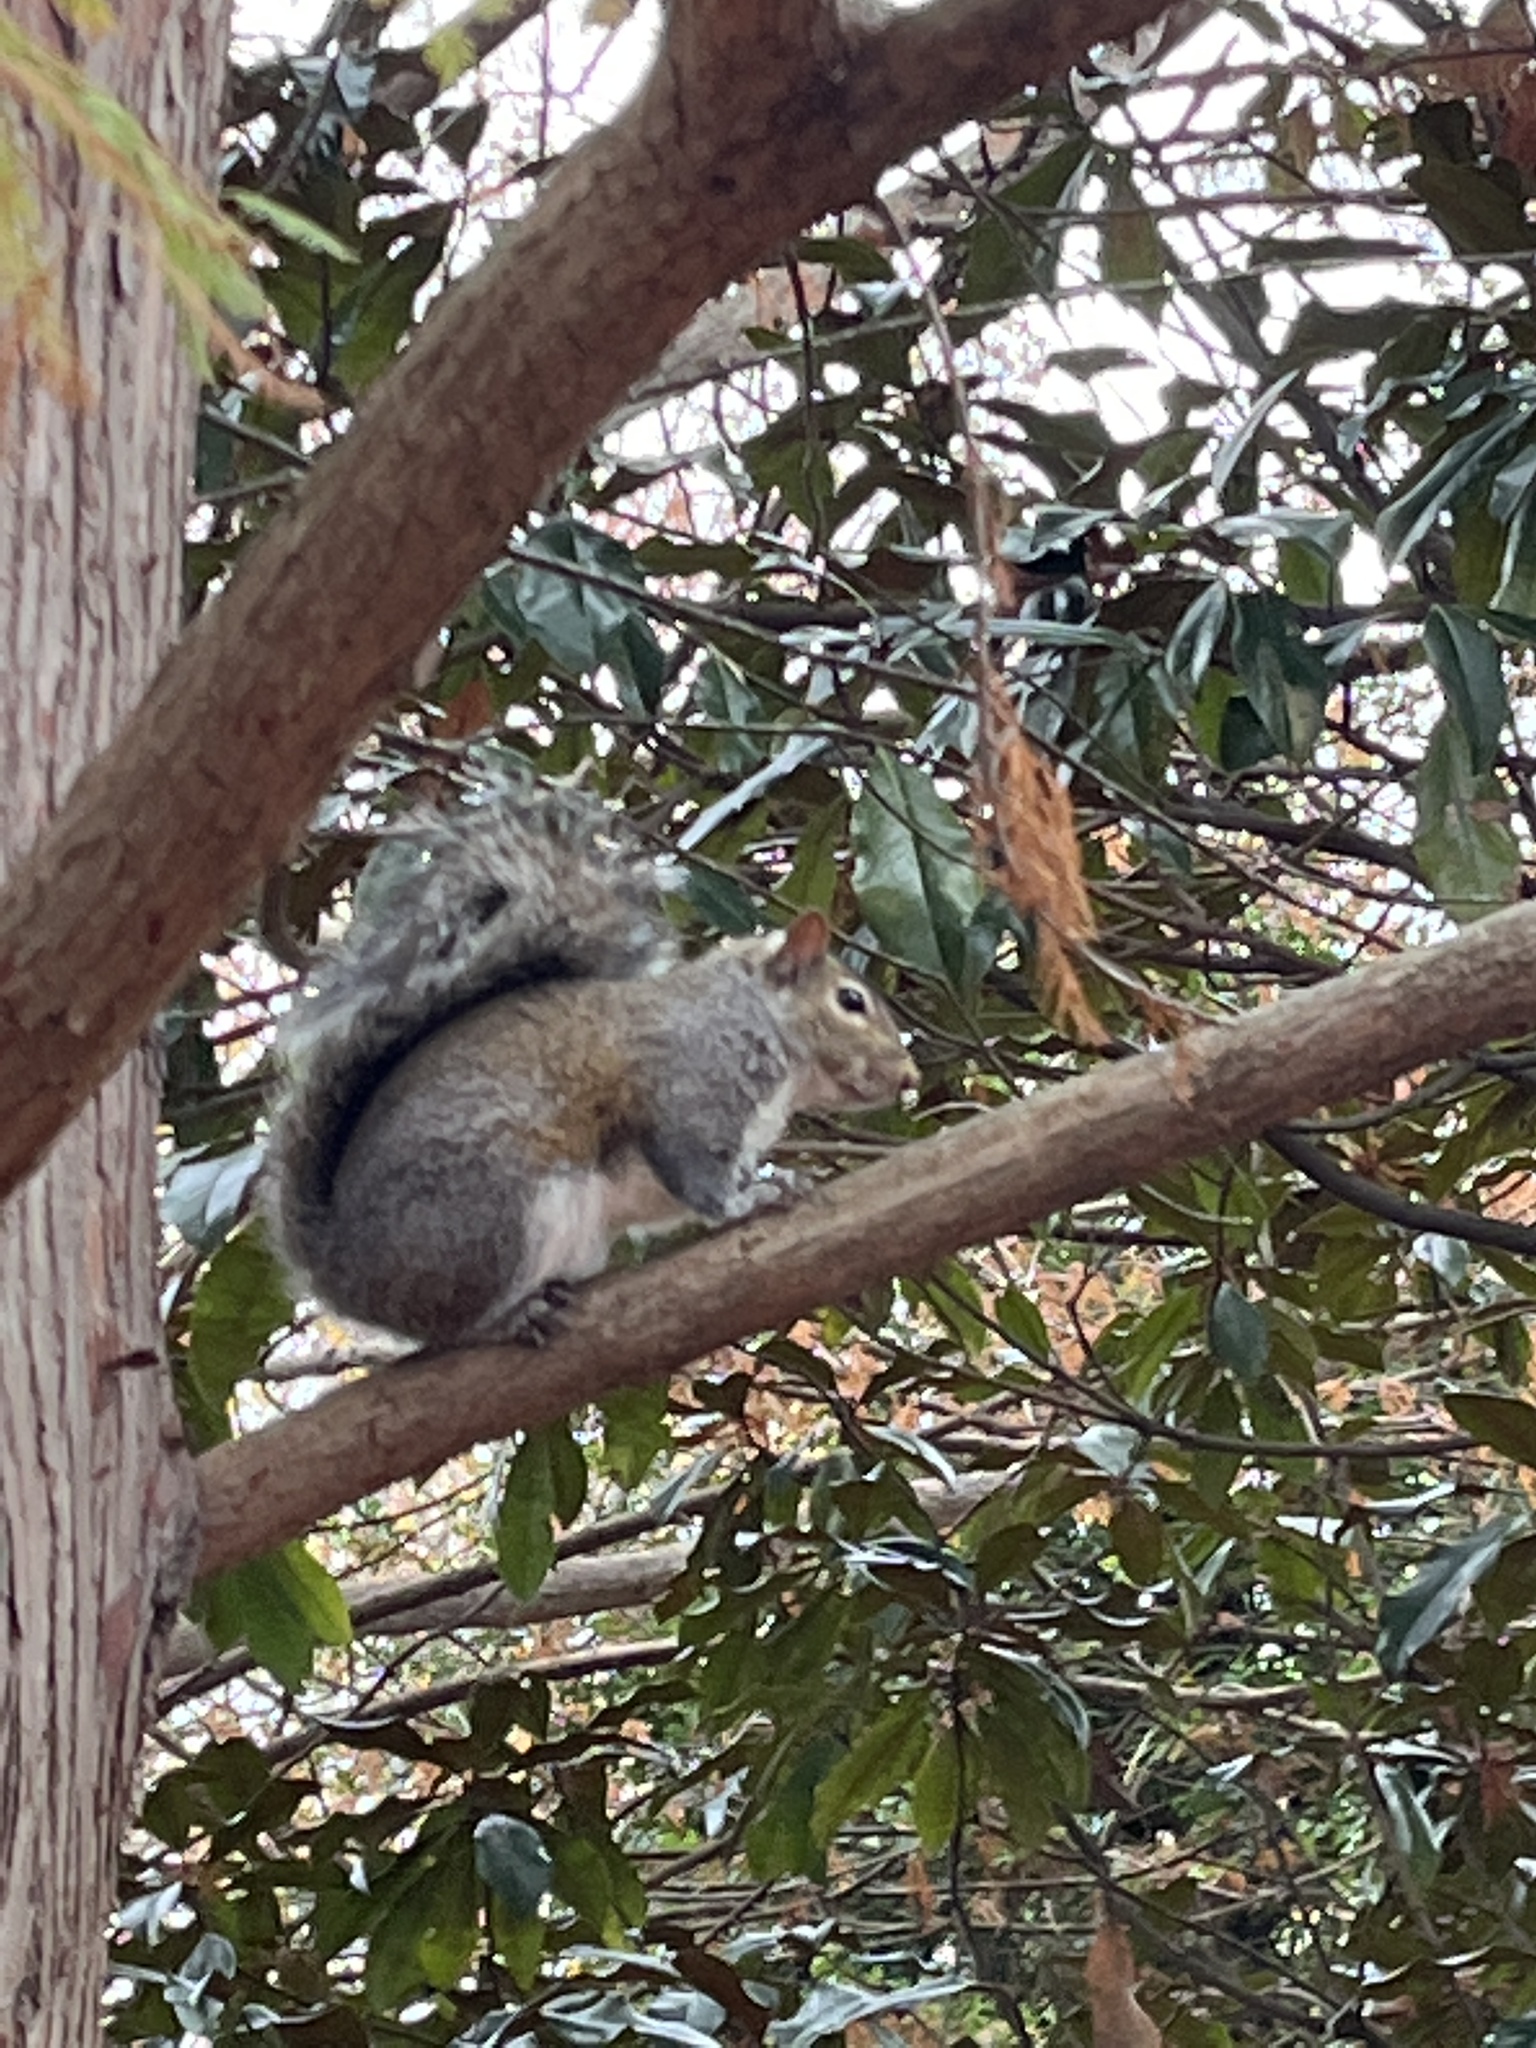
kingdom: Animalia
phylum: Chordata
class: Mammalia
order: Rodentia
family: Sciuridae
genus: Sciurus
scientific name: Sciurus carolinensis
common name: Eastern gray squirrel
